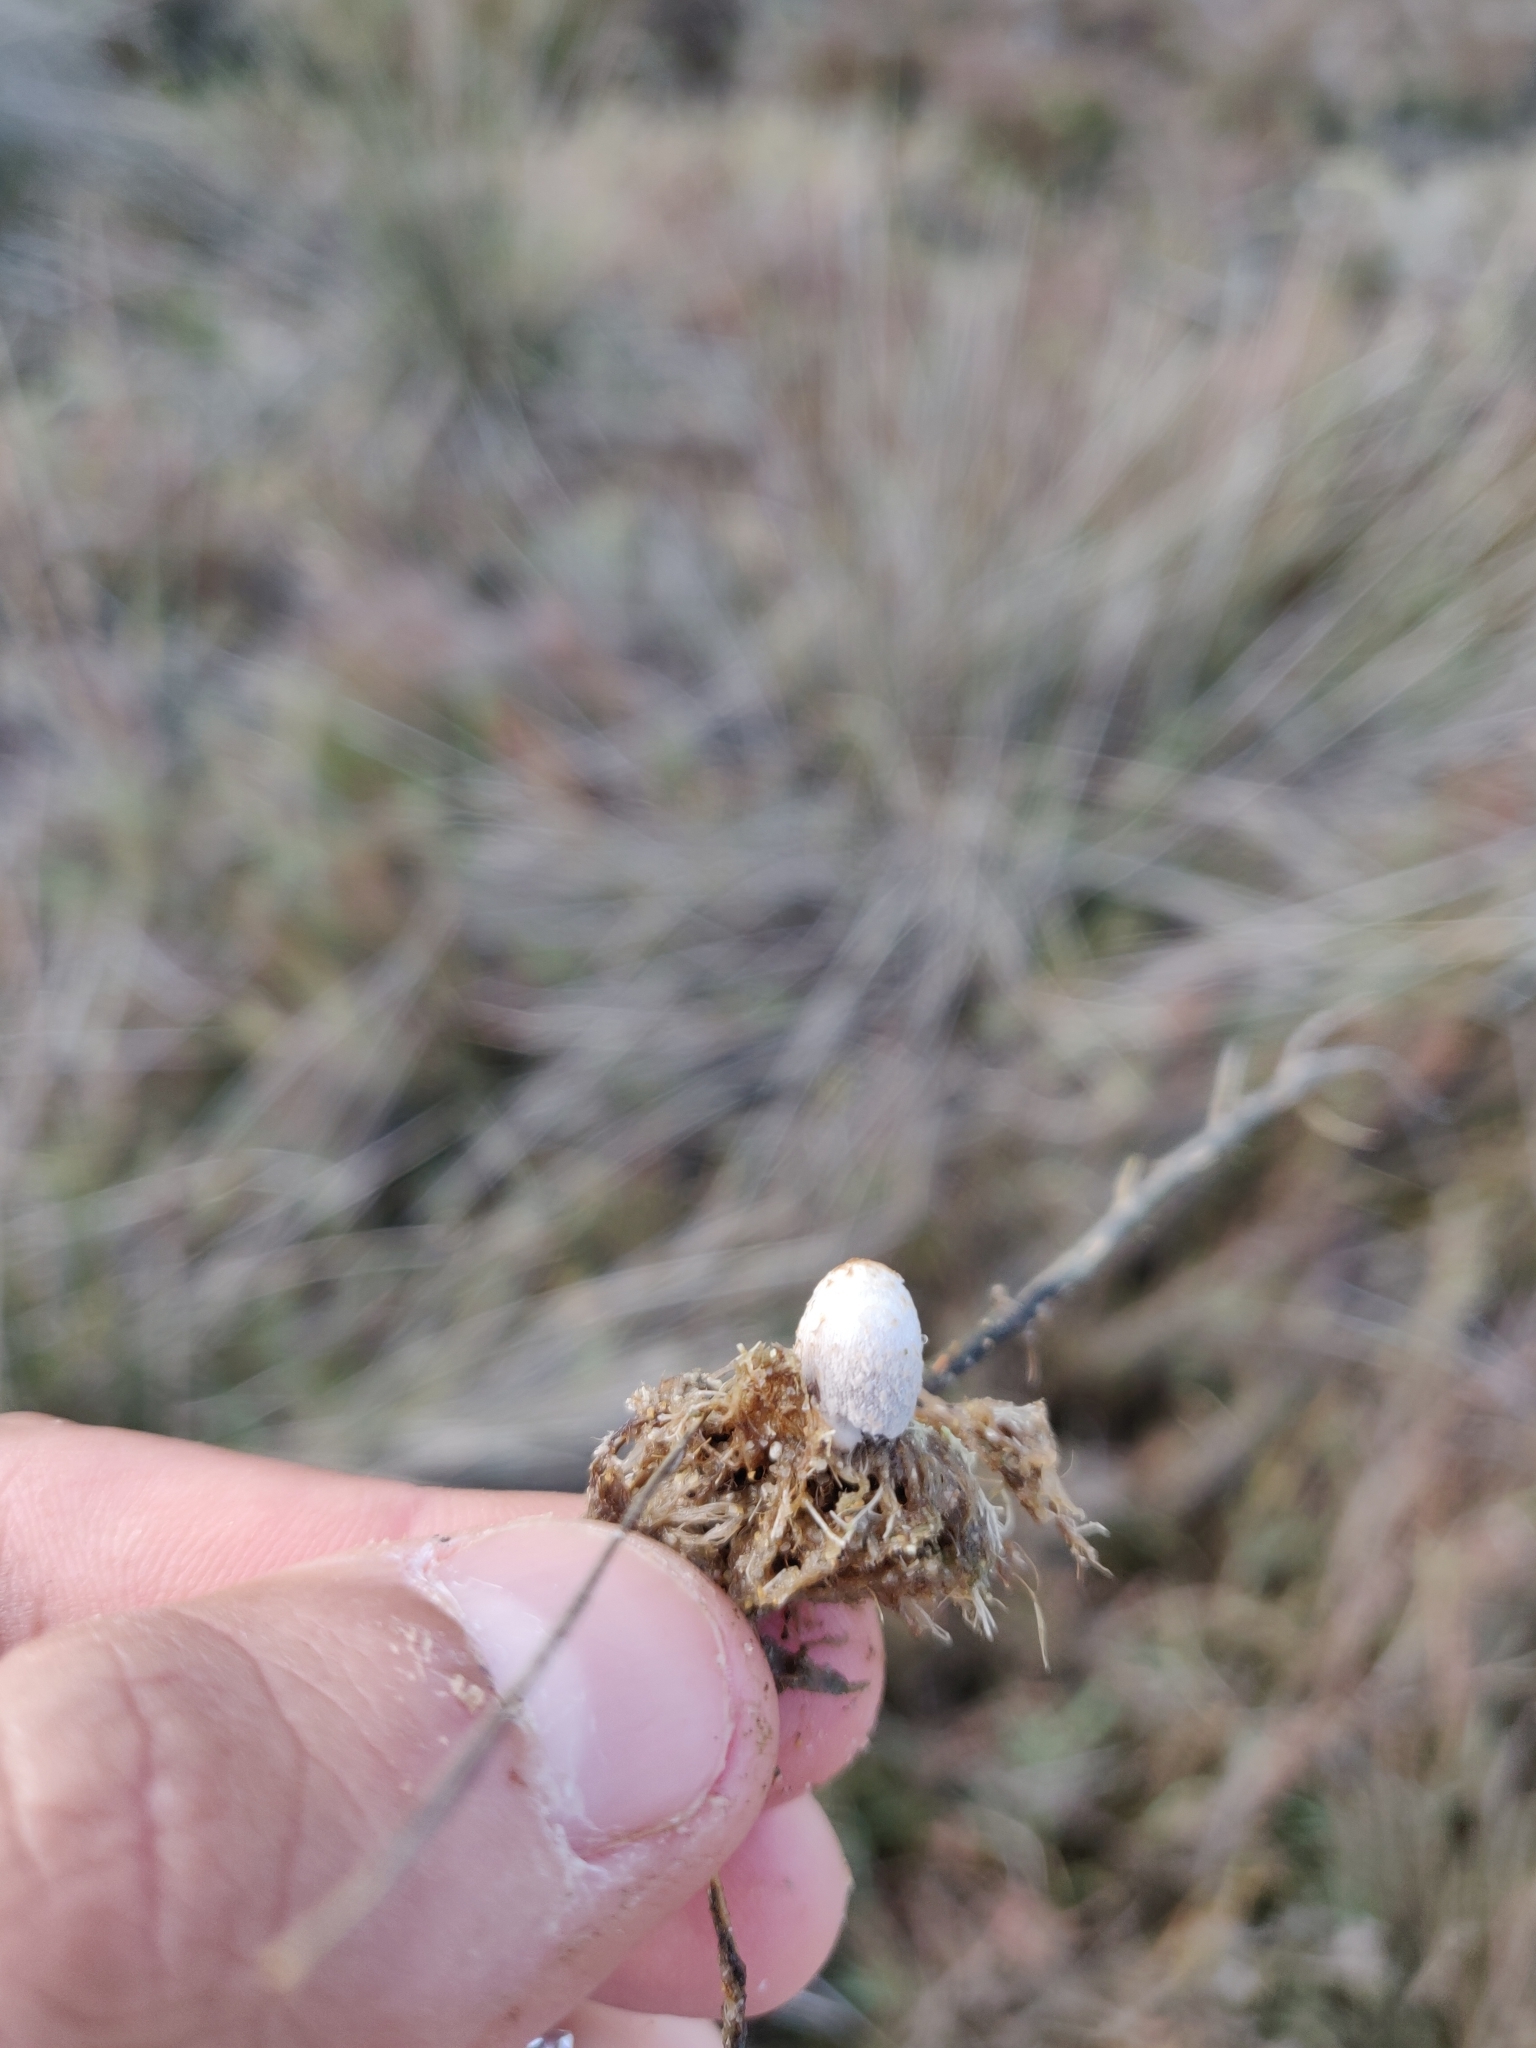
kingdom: Fungi
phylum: Basidiomycota
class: Agaricomycetes
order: Agaricales
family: Psathyrellaceae
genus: Coprinopsis
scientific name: Coprinopsis kubickae
